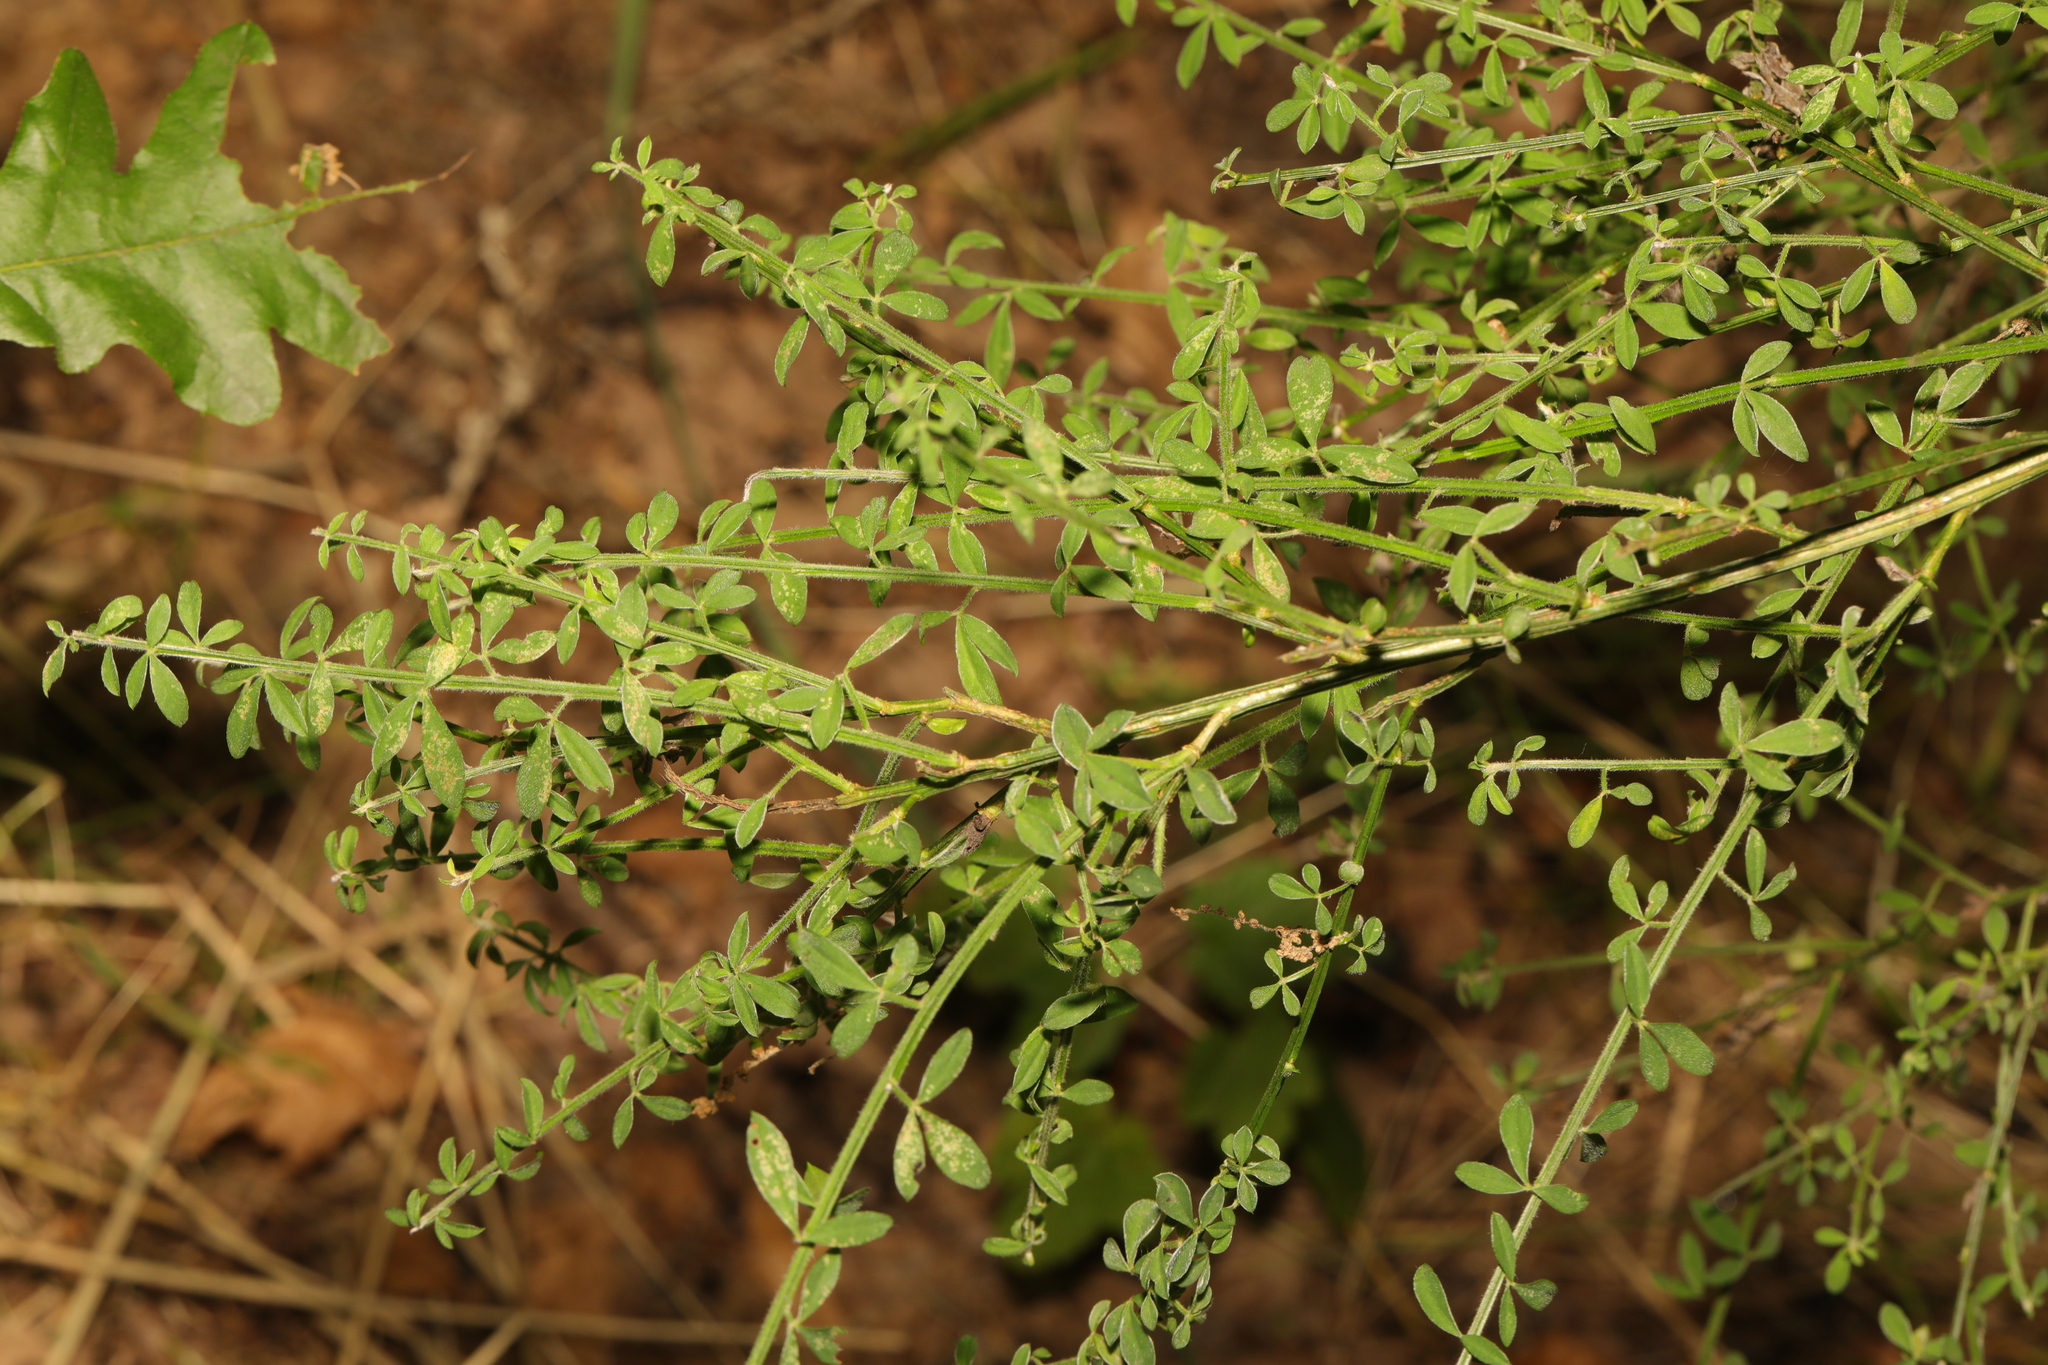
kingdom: Plantae
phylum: Tracheophyta
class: Magnoliopsida
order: Fabales
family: Fabaceae
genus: Cytisus
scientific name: Cytisus scoparius
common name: Scotch broom
